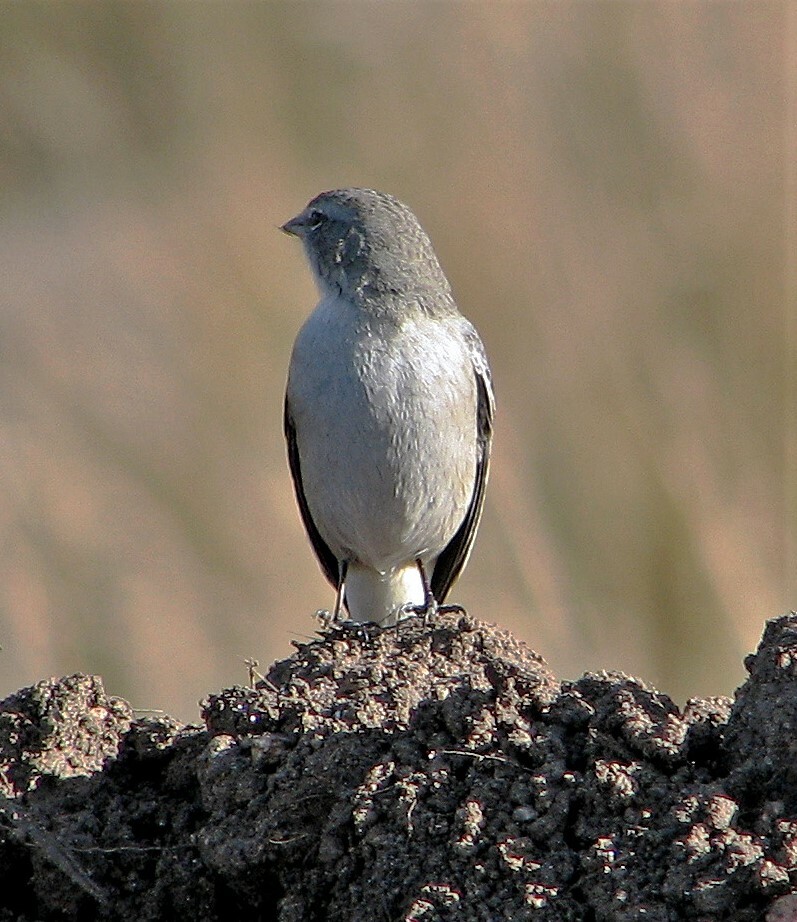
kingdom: Animalia
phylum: Chordata
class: Aves
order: Passeriformes
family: Thraupidae
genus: Geospizopsis
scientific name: Geospizopsis plebejus
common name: Ash-breasted sierra-finch
